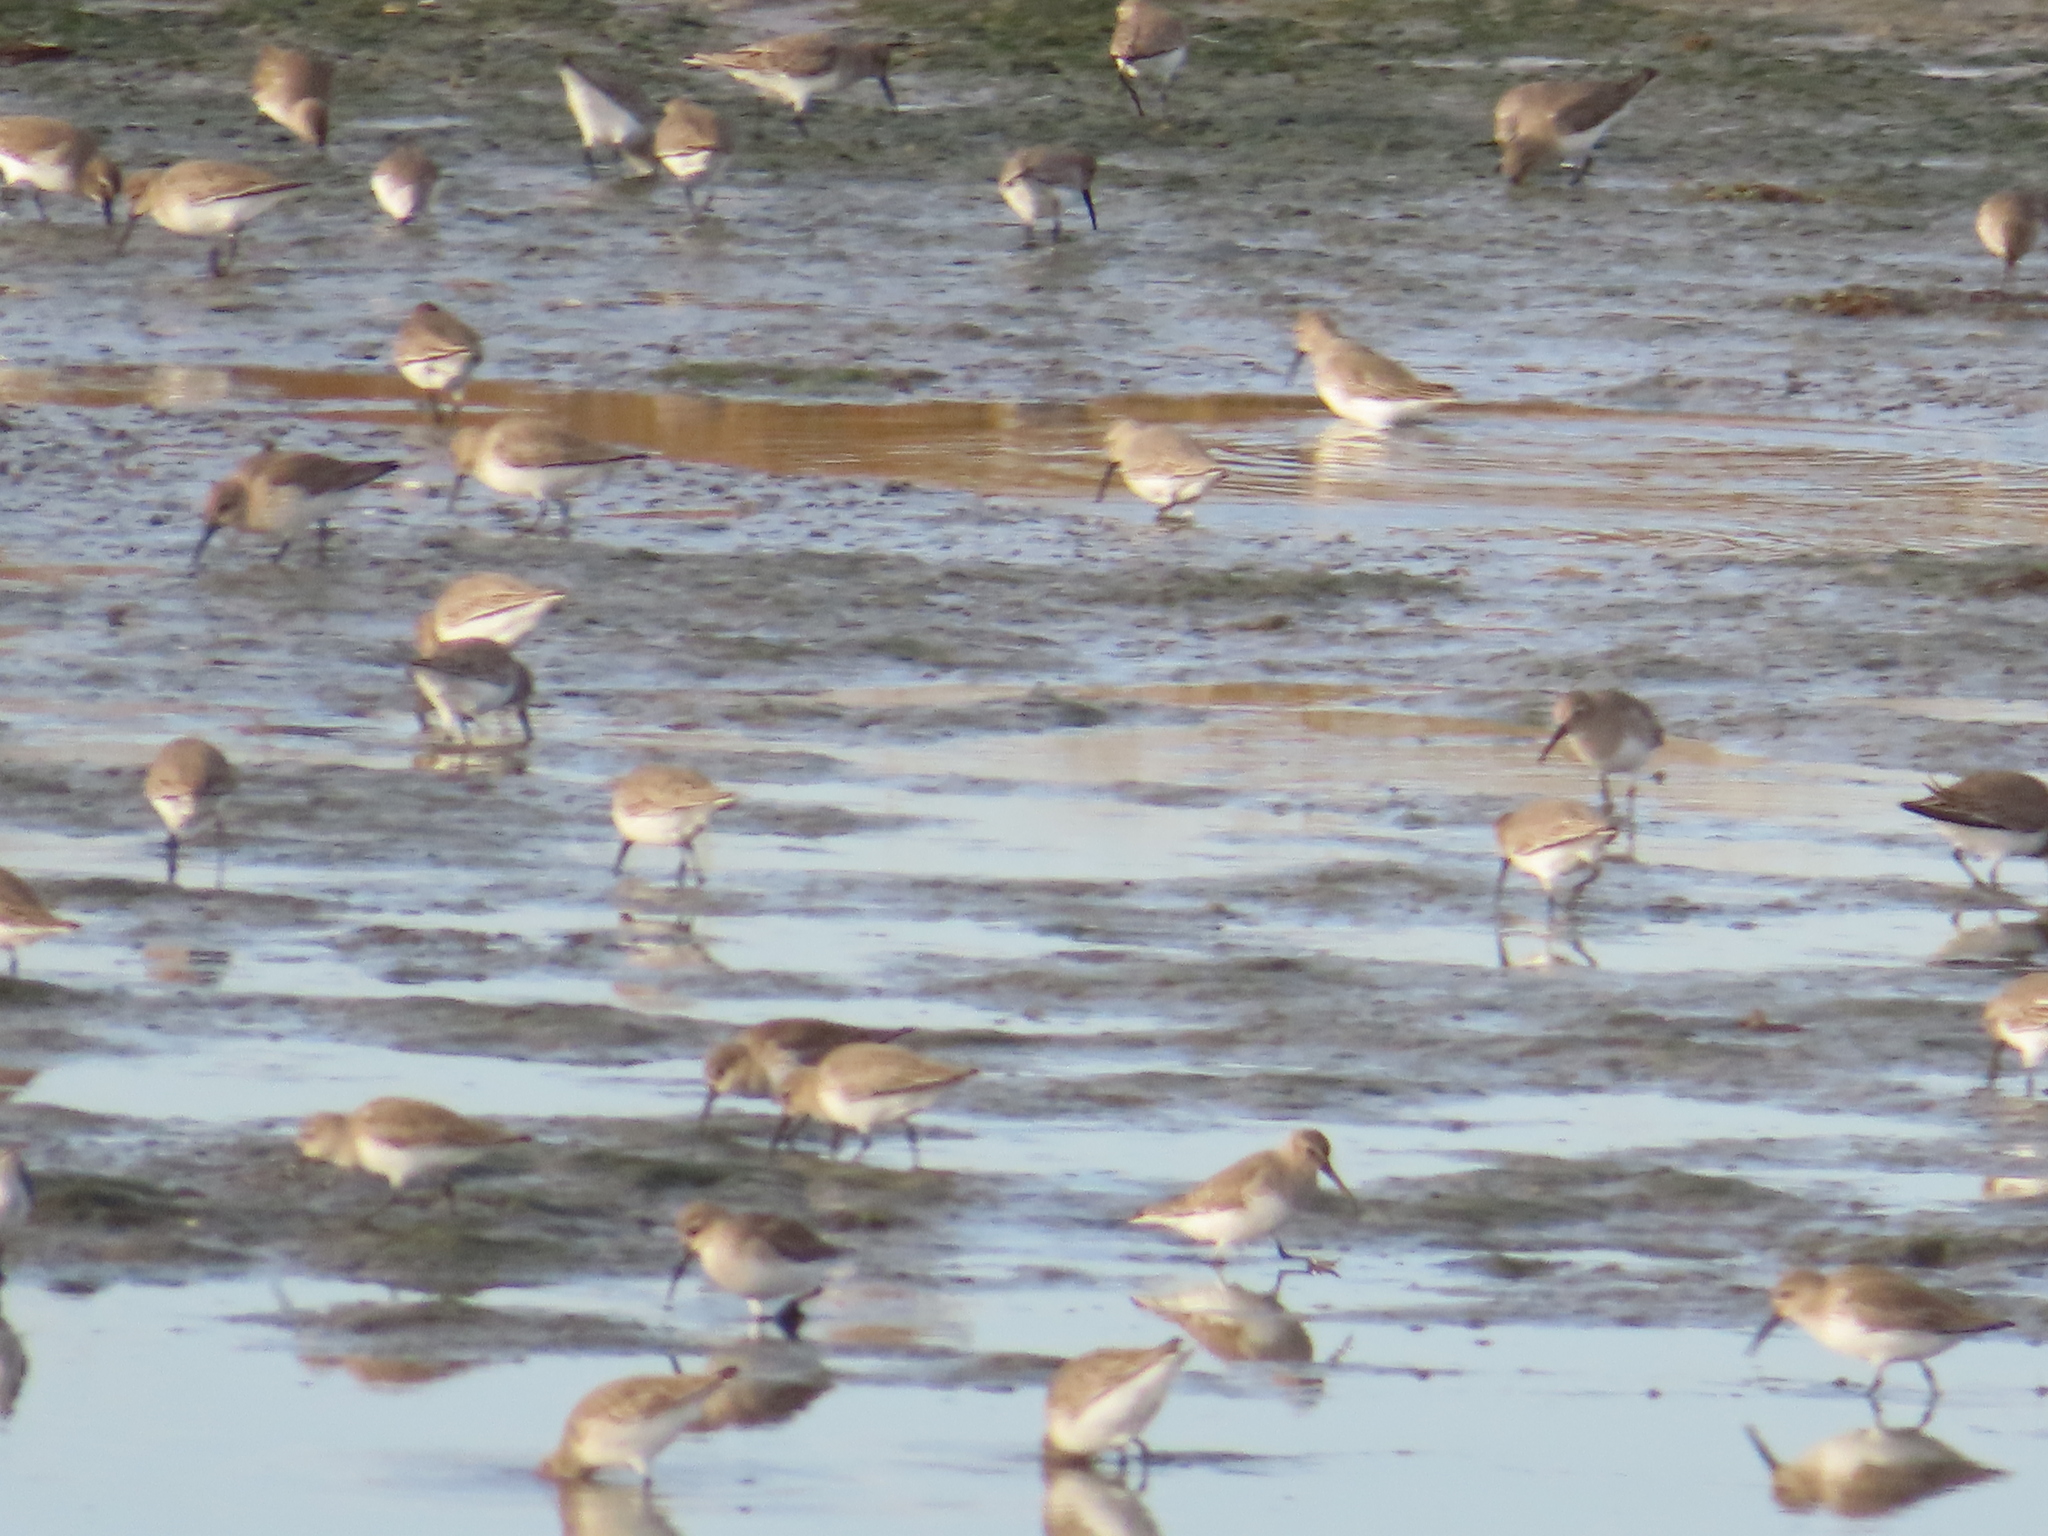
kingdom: Animalia
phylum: Chordata
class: Aves
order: Charadriiformes
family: Scolopacidae
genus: Calidris
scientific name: Calidris alpina
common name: Dunlin
